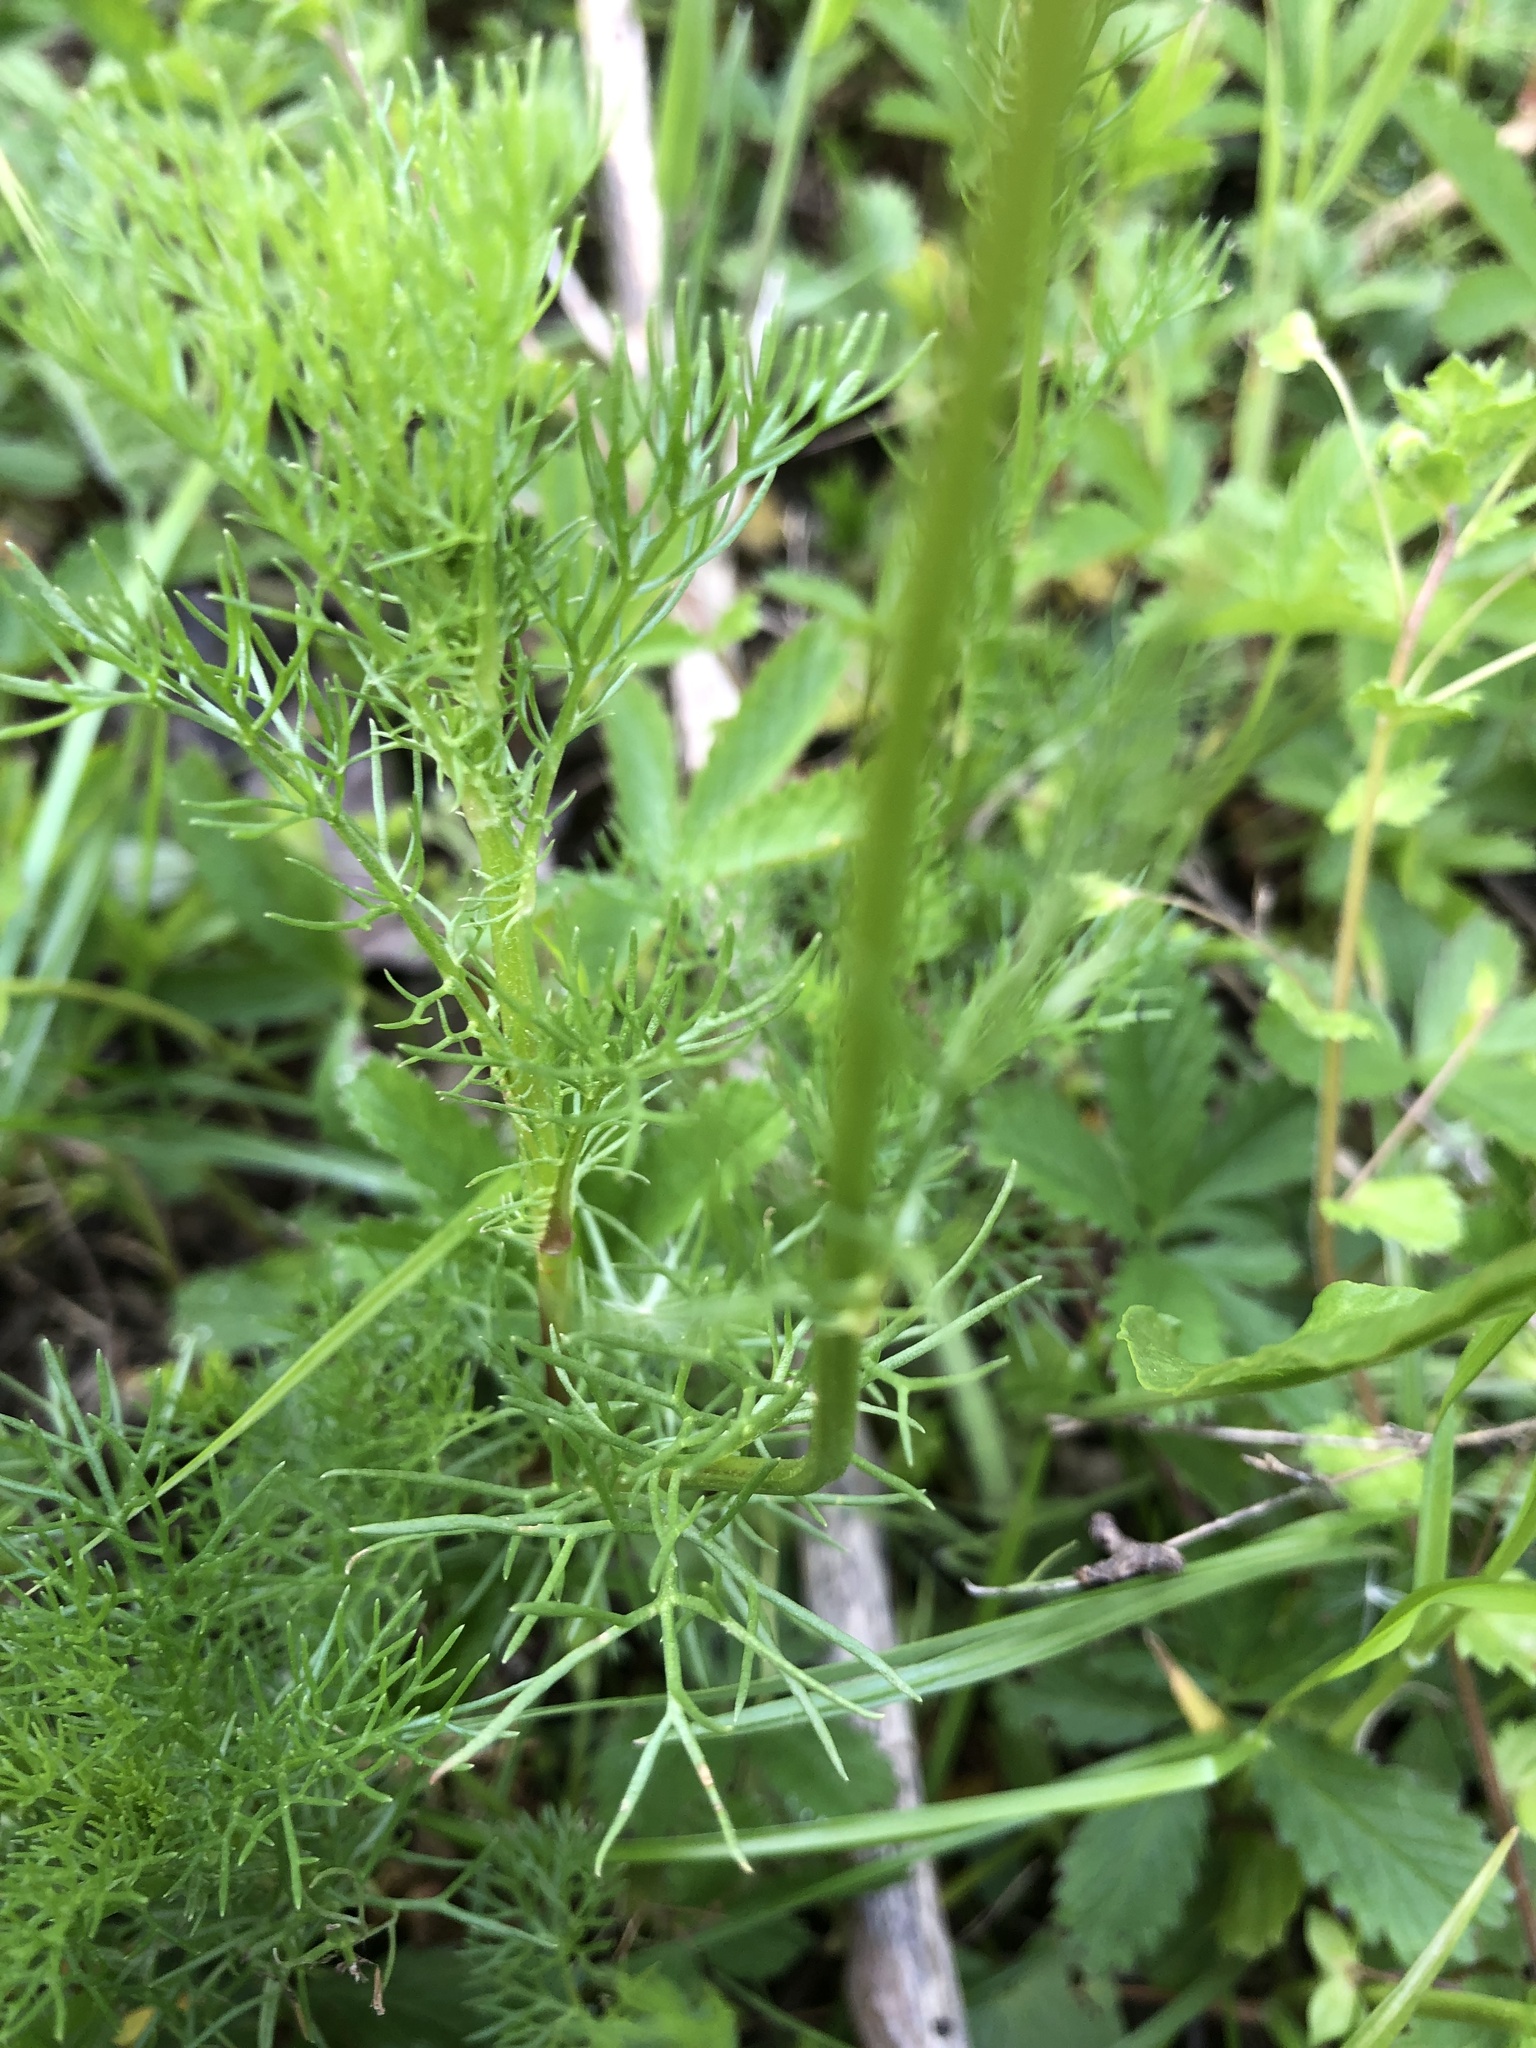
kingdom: Plantae
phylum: Tracheophyta
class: Magnoliopsida
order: Asterales
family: Asteraceae
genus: Tripleurospermum
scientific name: Tripleurospermum inodorum
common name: Scentless mayweed
